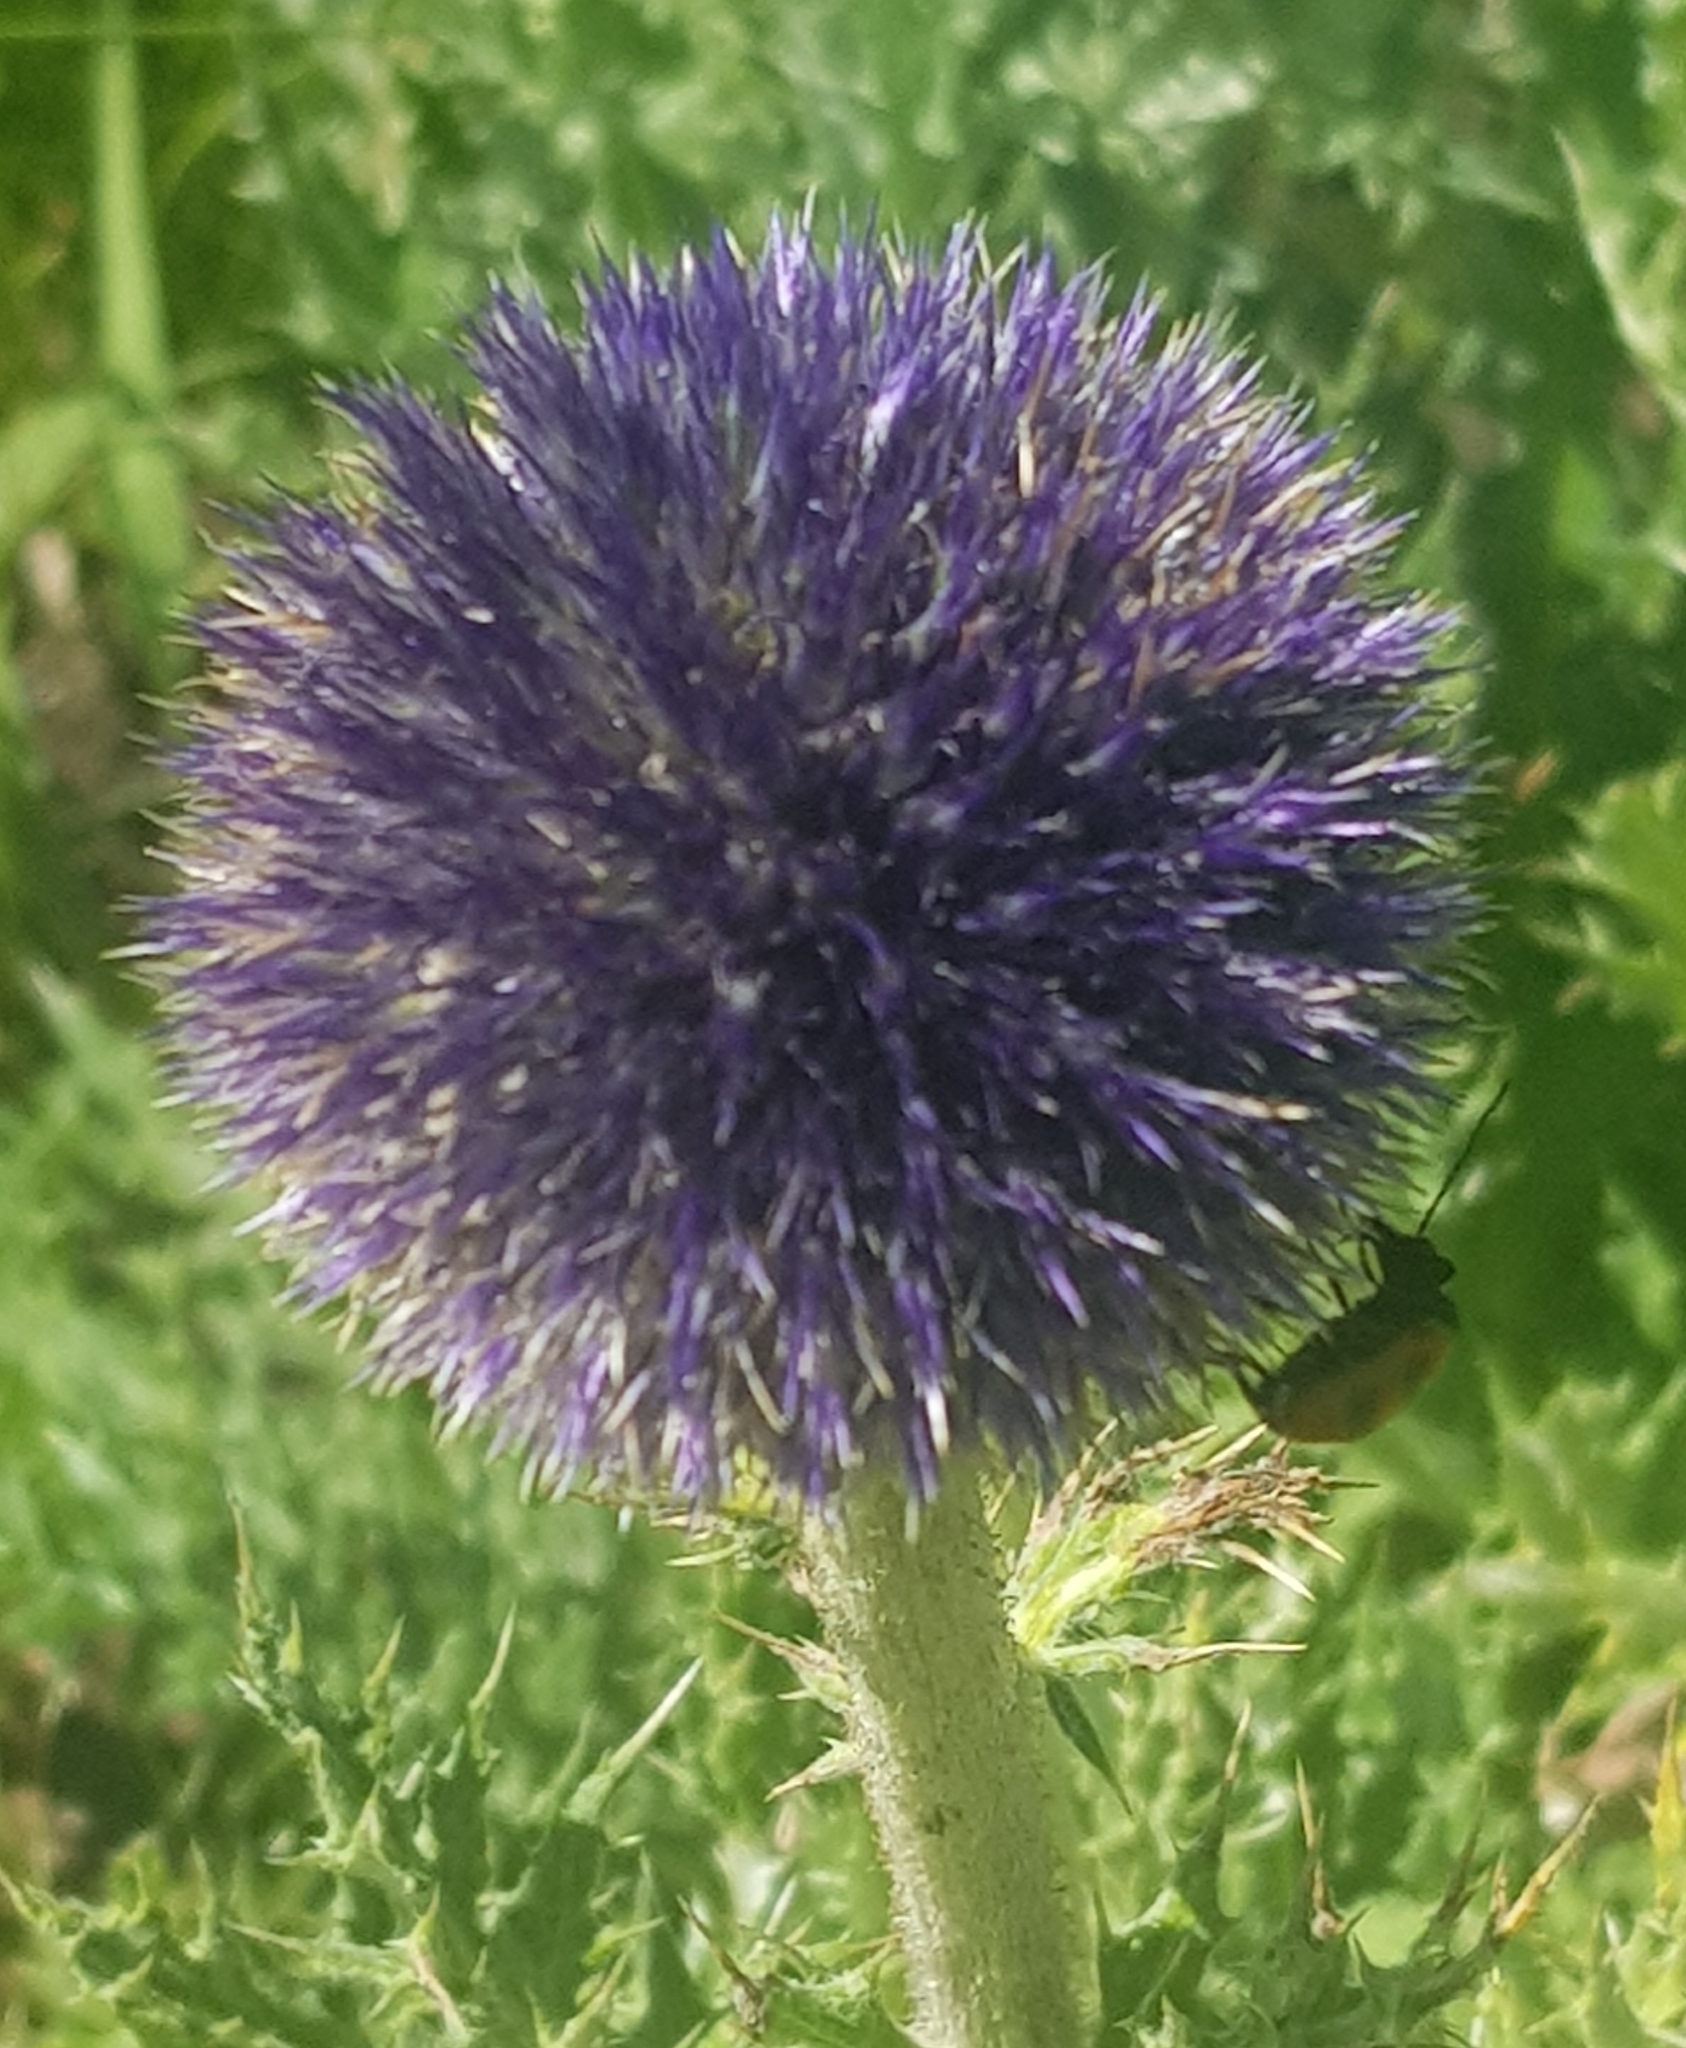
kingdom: Plantae
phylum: Tracheophyta
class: Magnoliopsida
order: Asterales
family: Asteraceae
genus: Echinops
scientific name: Echinops davuricus
